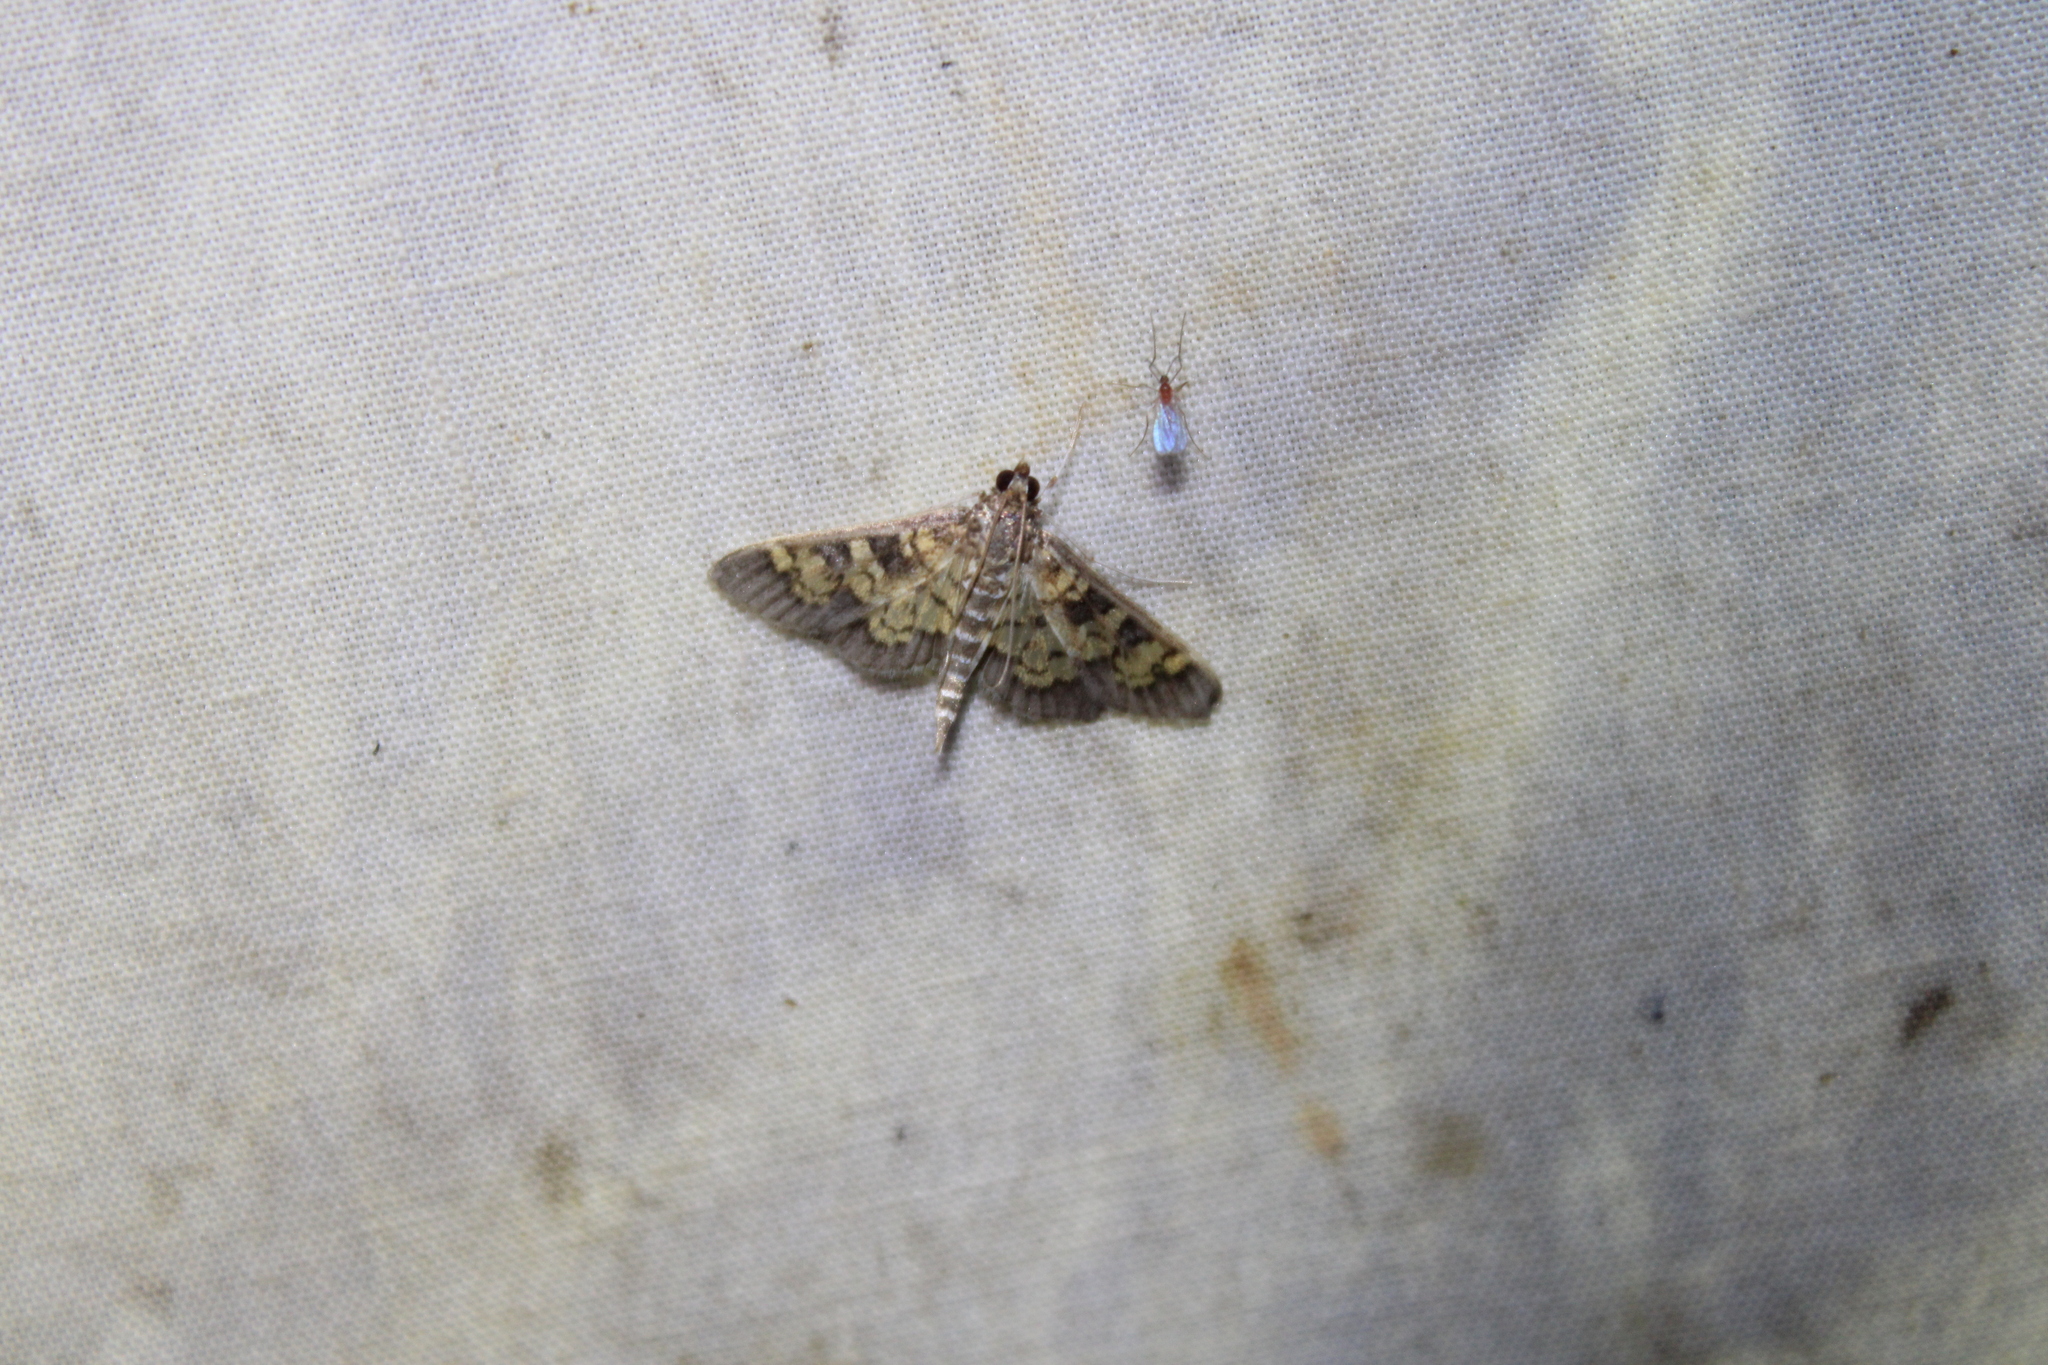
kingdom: Animalia
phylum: Arthropoda
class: Insecta
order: Lepidoptera
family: Crambidae
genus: Epipagis
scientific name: Epipagis adipaloides
